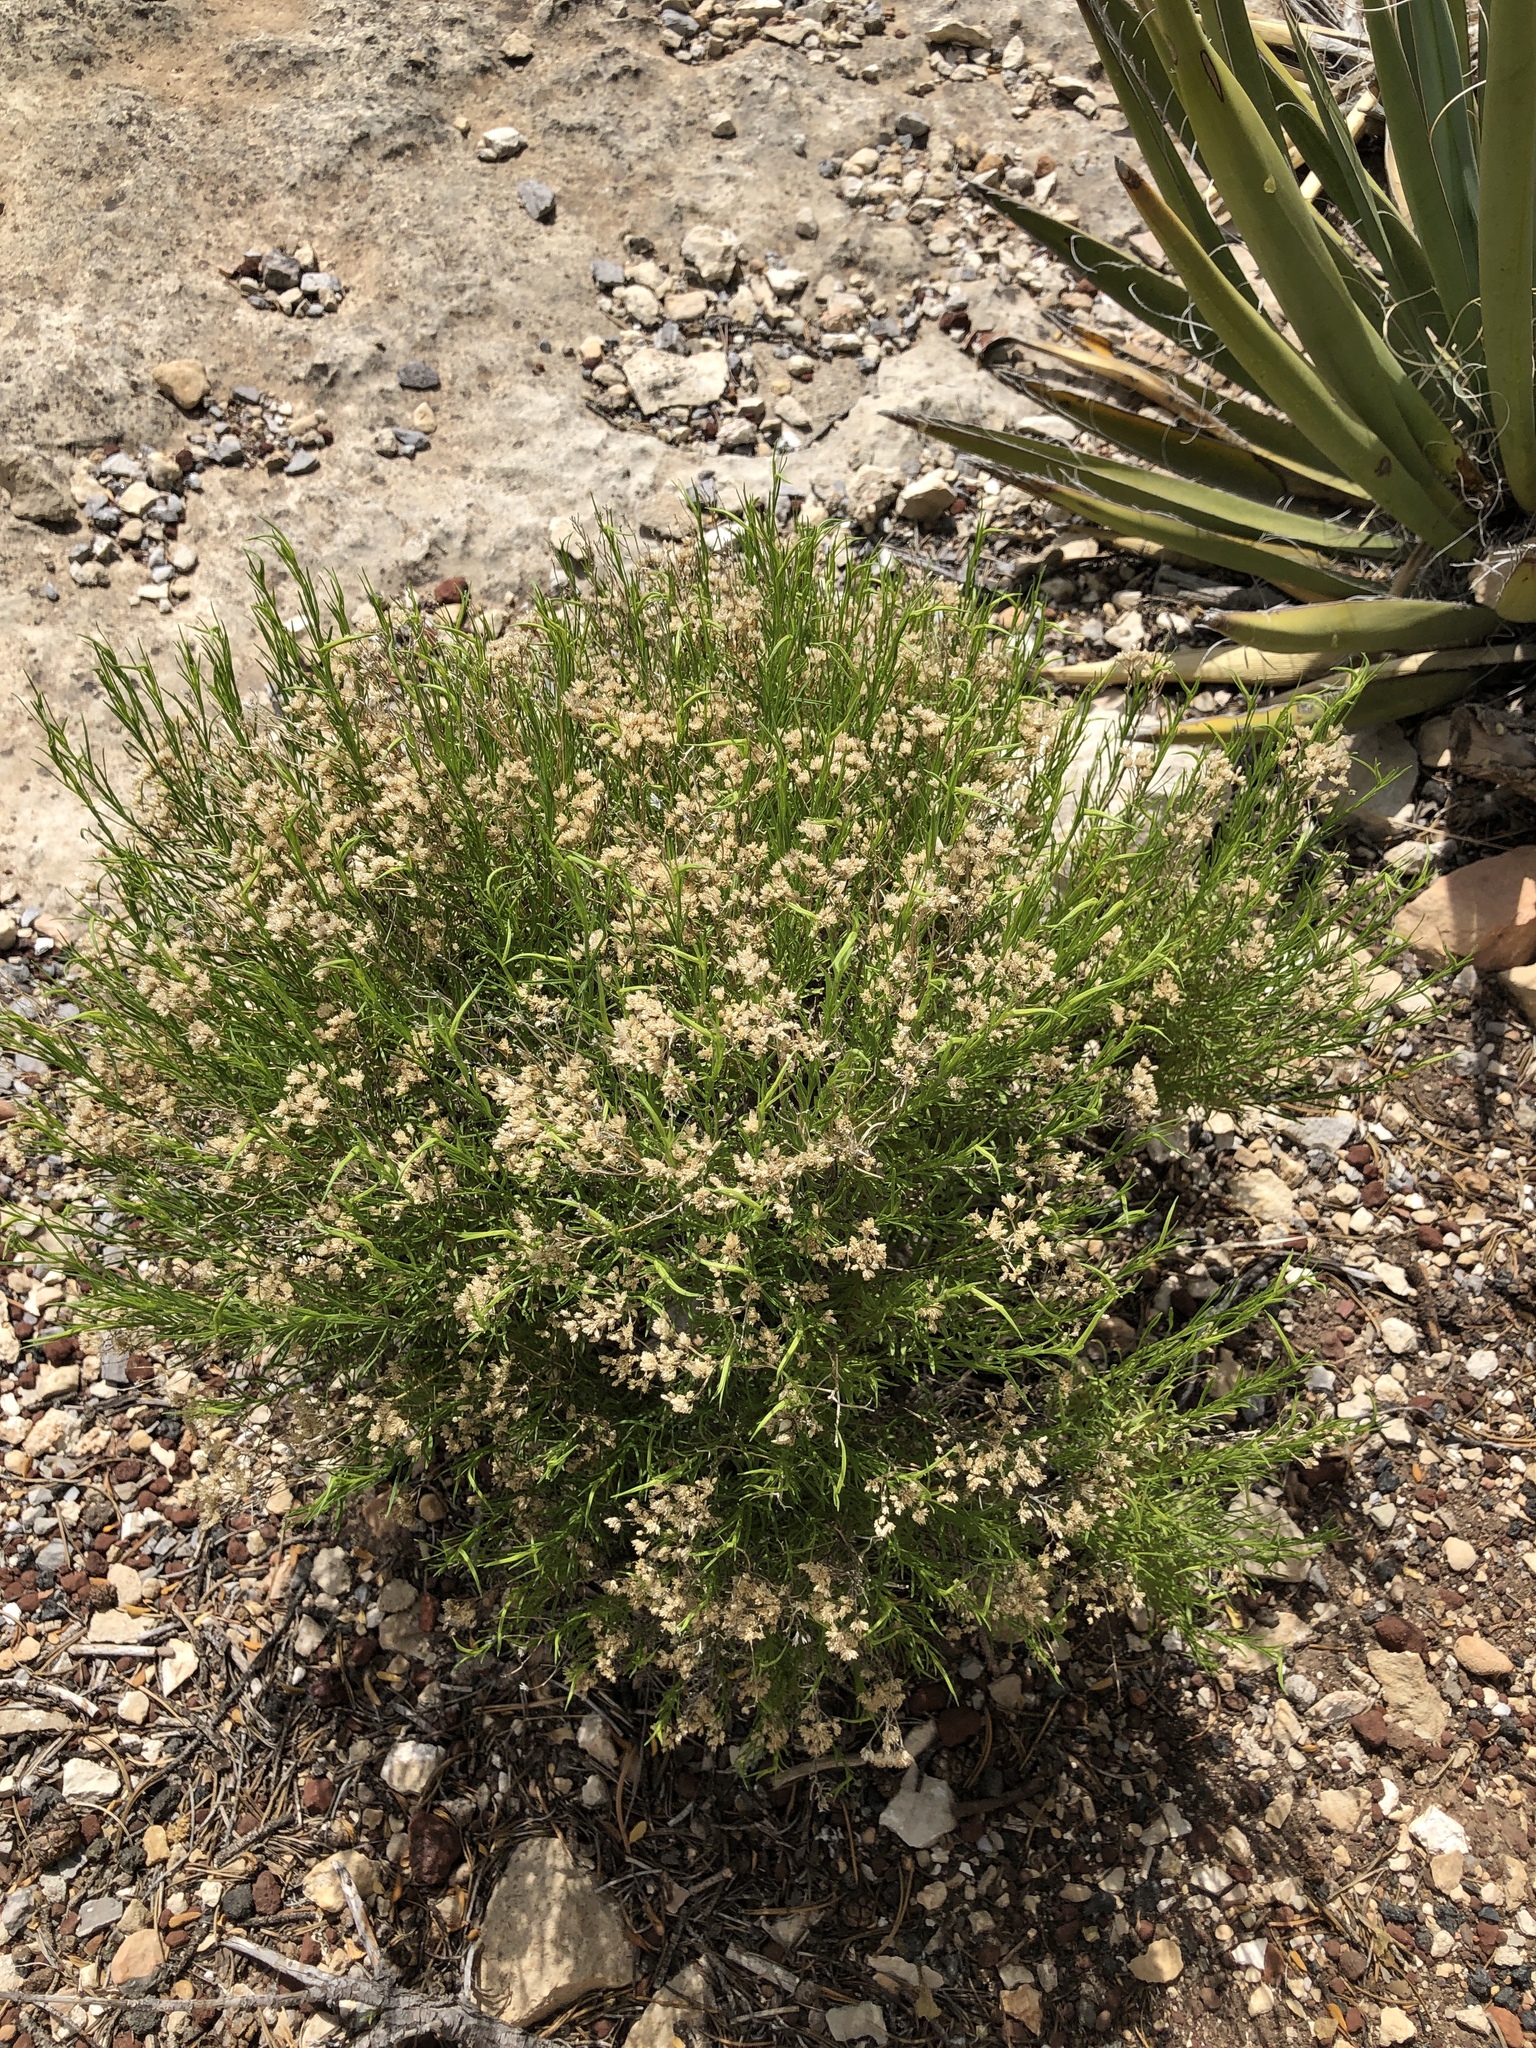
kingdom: Plantae
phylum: Tracheophyta
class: Magnoliopsida
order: Asterales
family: Asteraceae
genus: Gutierrezia
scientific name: Gutierrezia sarothrae
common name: Broom snakeweed
